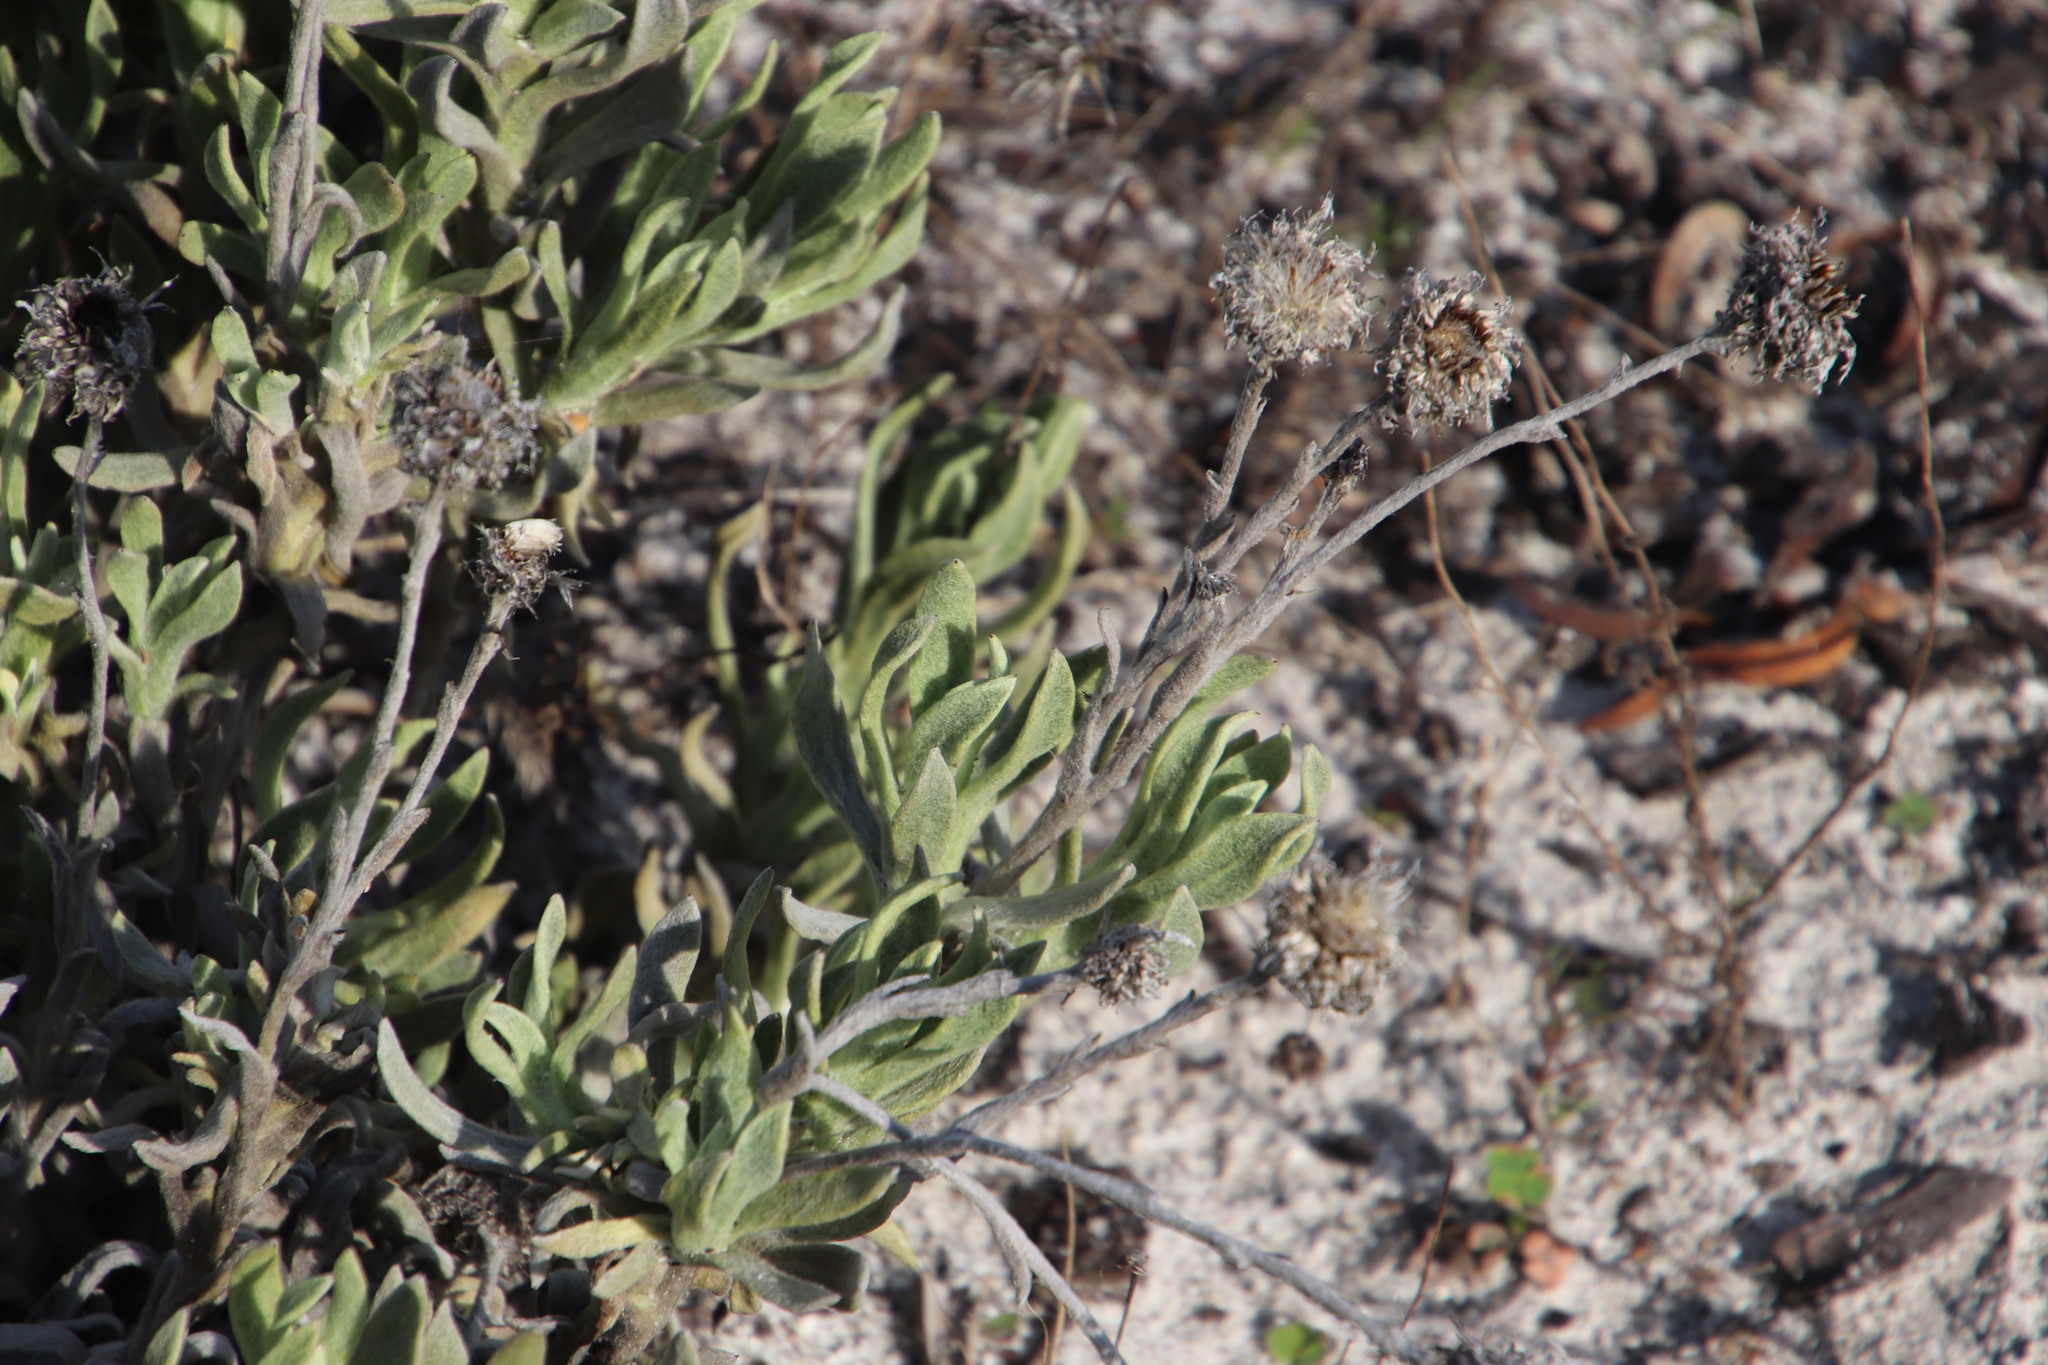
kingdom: Plantae
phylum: Tracheophyta
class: Magnoliopsida
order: Asterales
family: Asteraceae
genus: Syncarpha
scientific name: Syncarpha vestita
